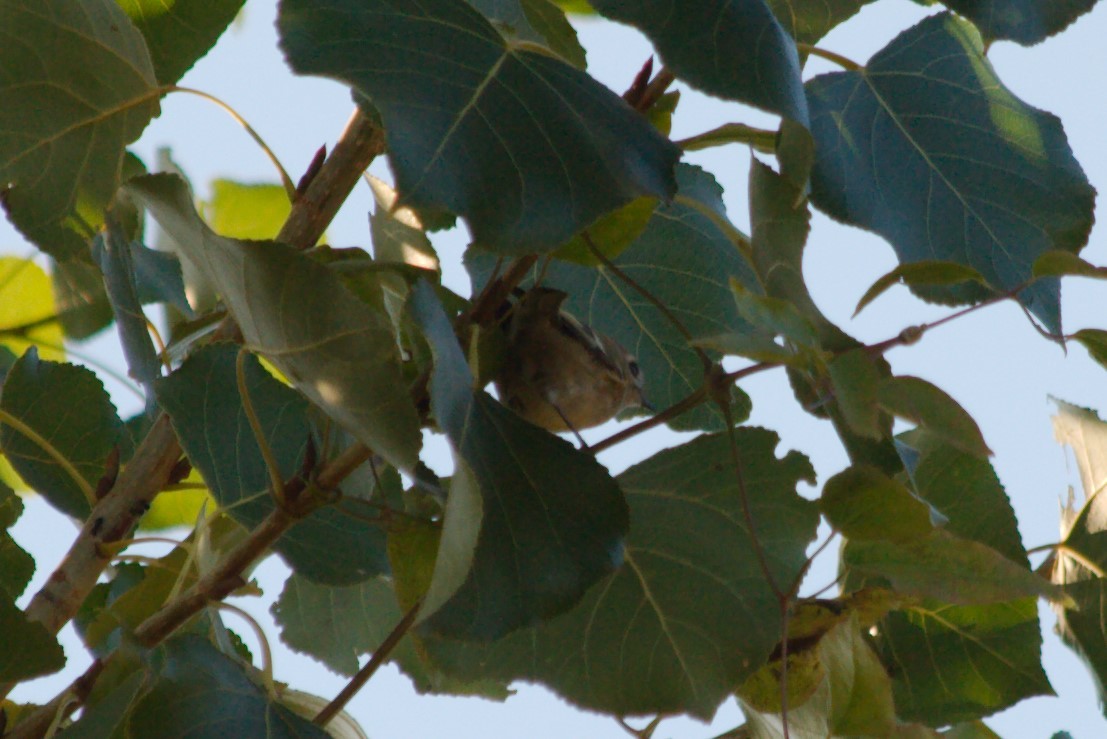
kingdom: Animalia
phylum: Chordata
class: Aves
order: Passeriformes
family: Regulidae
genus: Regulus
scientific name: Regulus regulus
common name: Goldcrest
